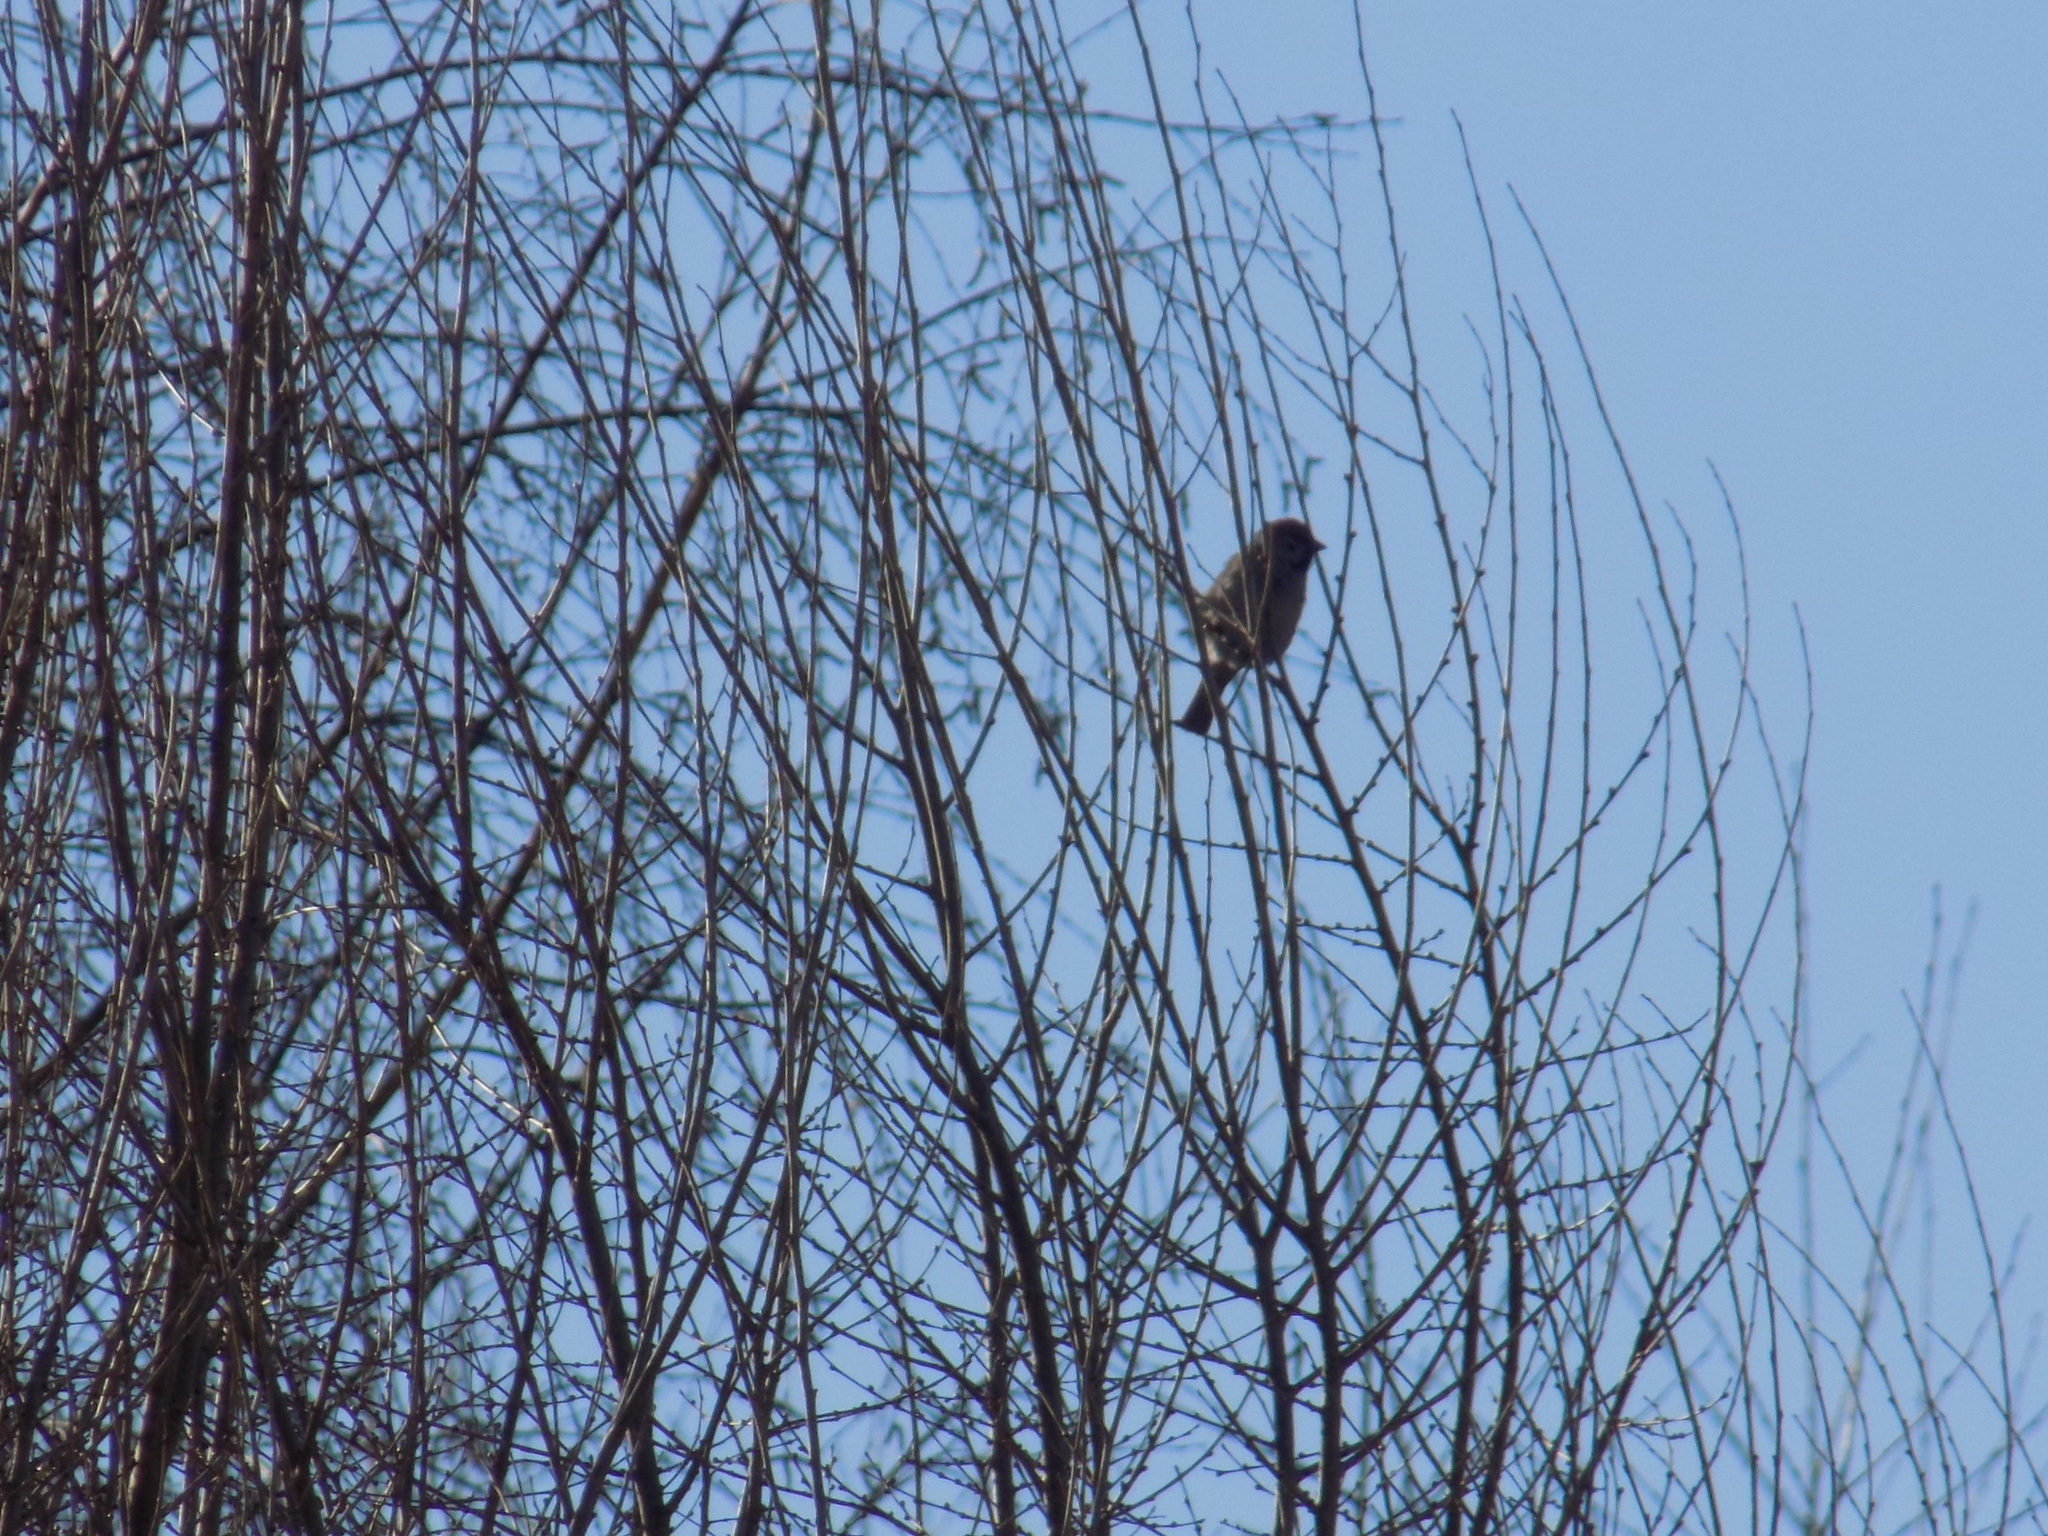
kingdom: Animalia
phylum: Chordata
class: Aves
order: Passeriformes
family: Passeridae
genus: Passer
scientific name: Passer montanus
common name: Eurasian tree sparrow
